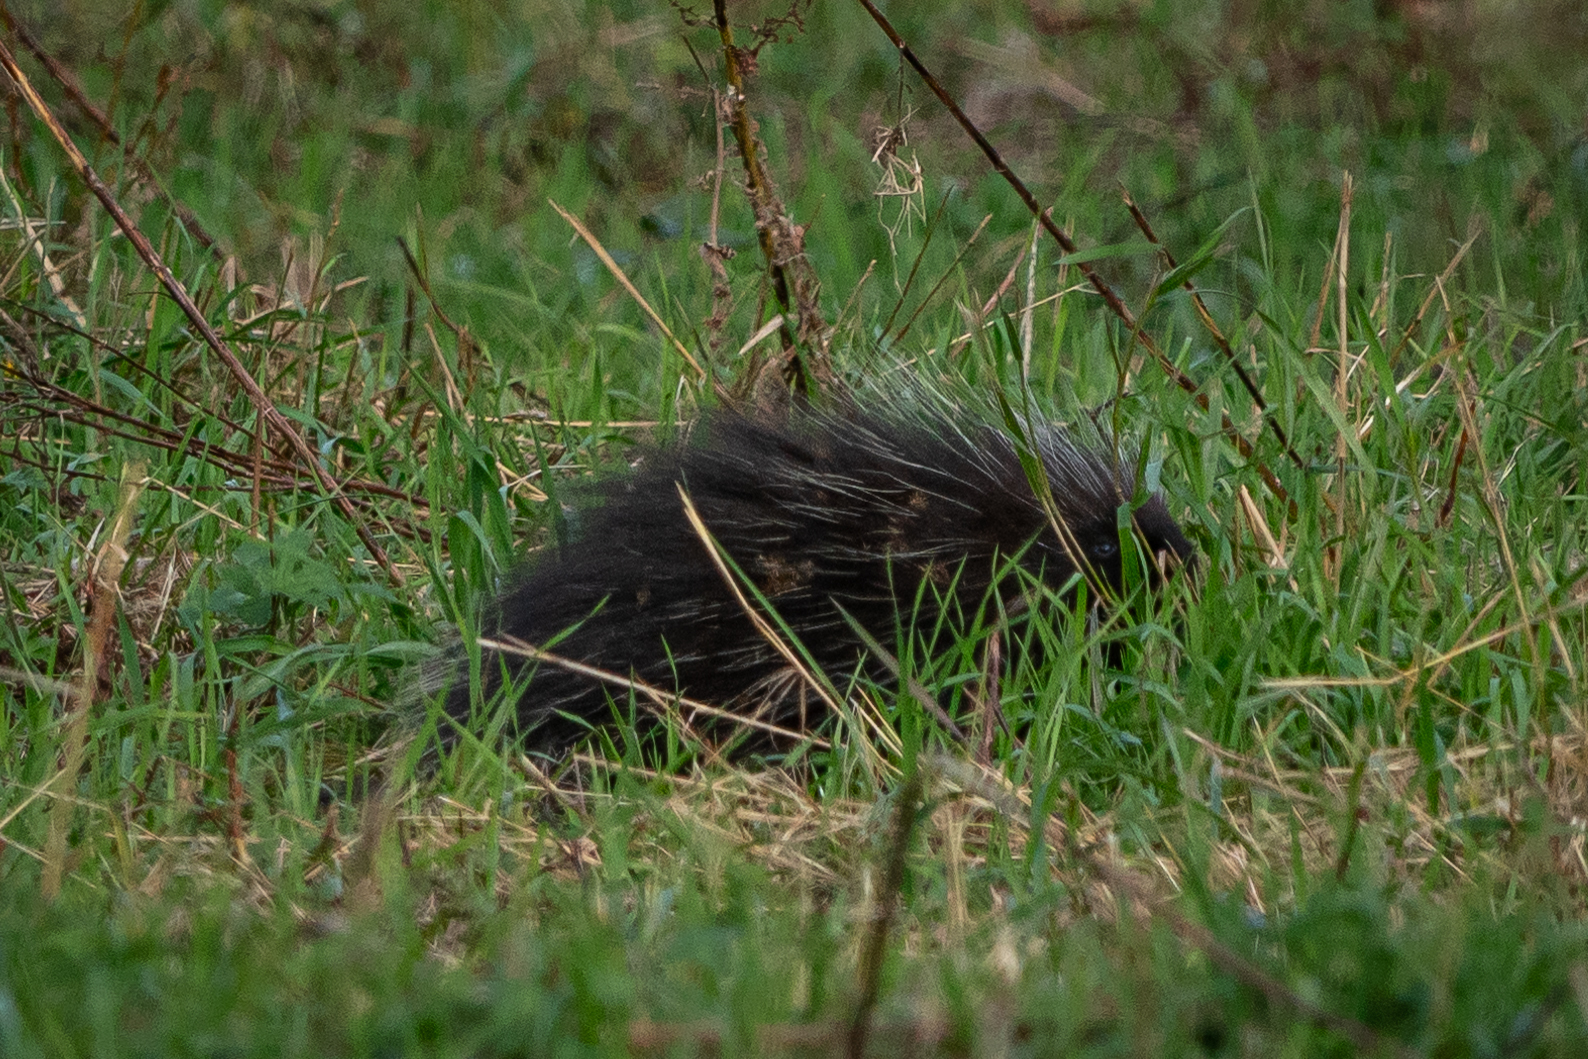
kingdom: Animalia
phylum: Chordata
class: Mammalia
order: Rodentia
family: Erethizontidae
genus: Erethizon
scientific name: Erethizon dorsatus
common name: North american porcupine
